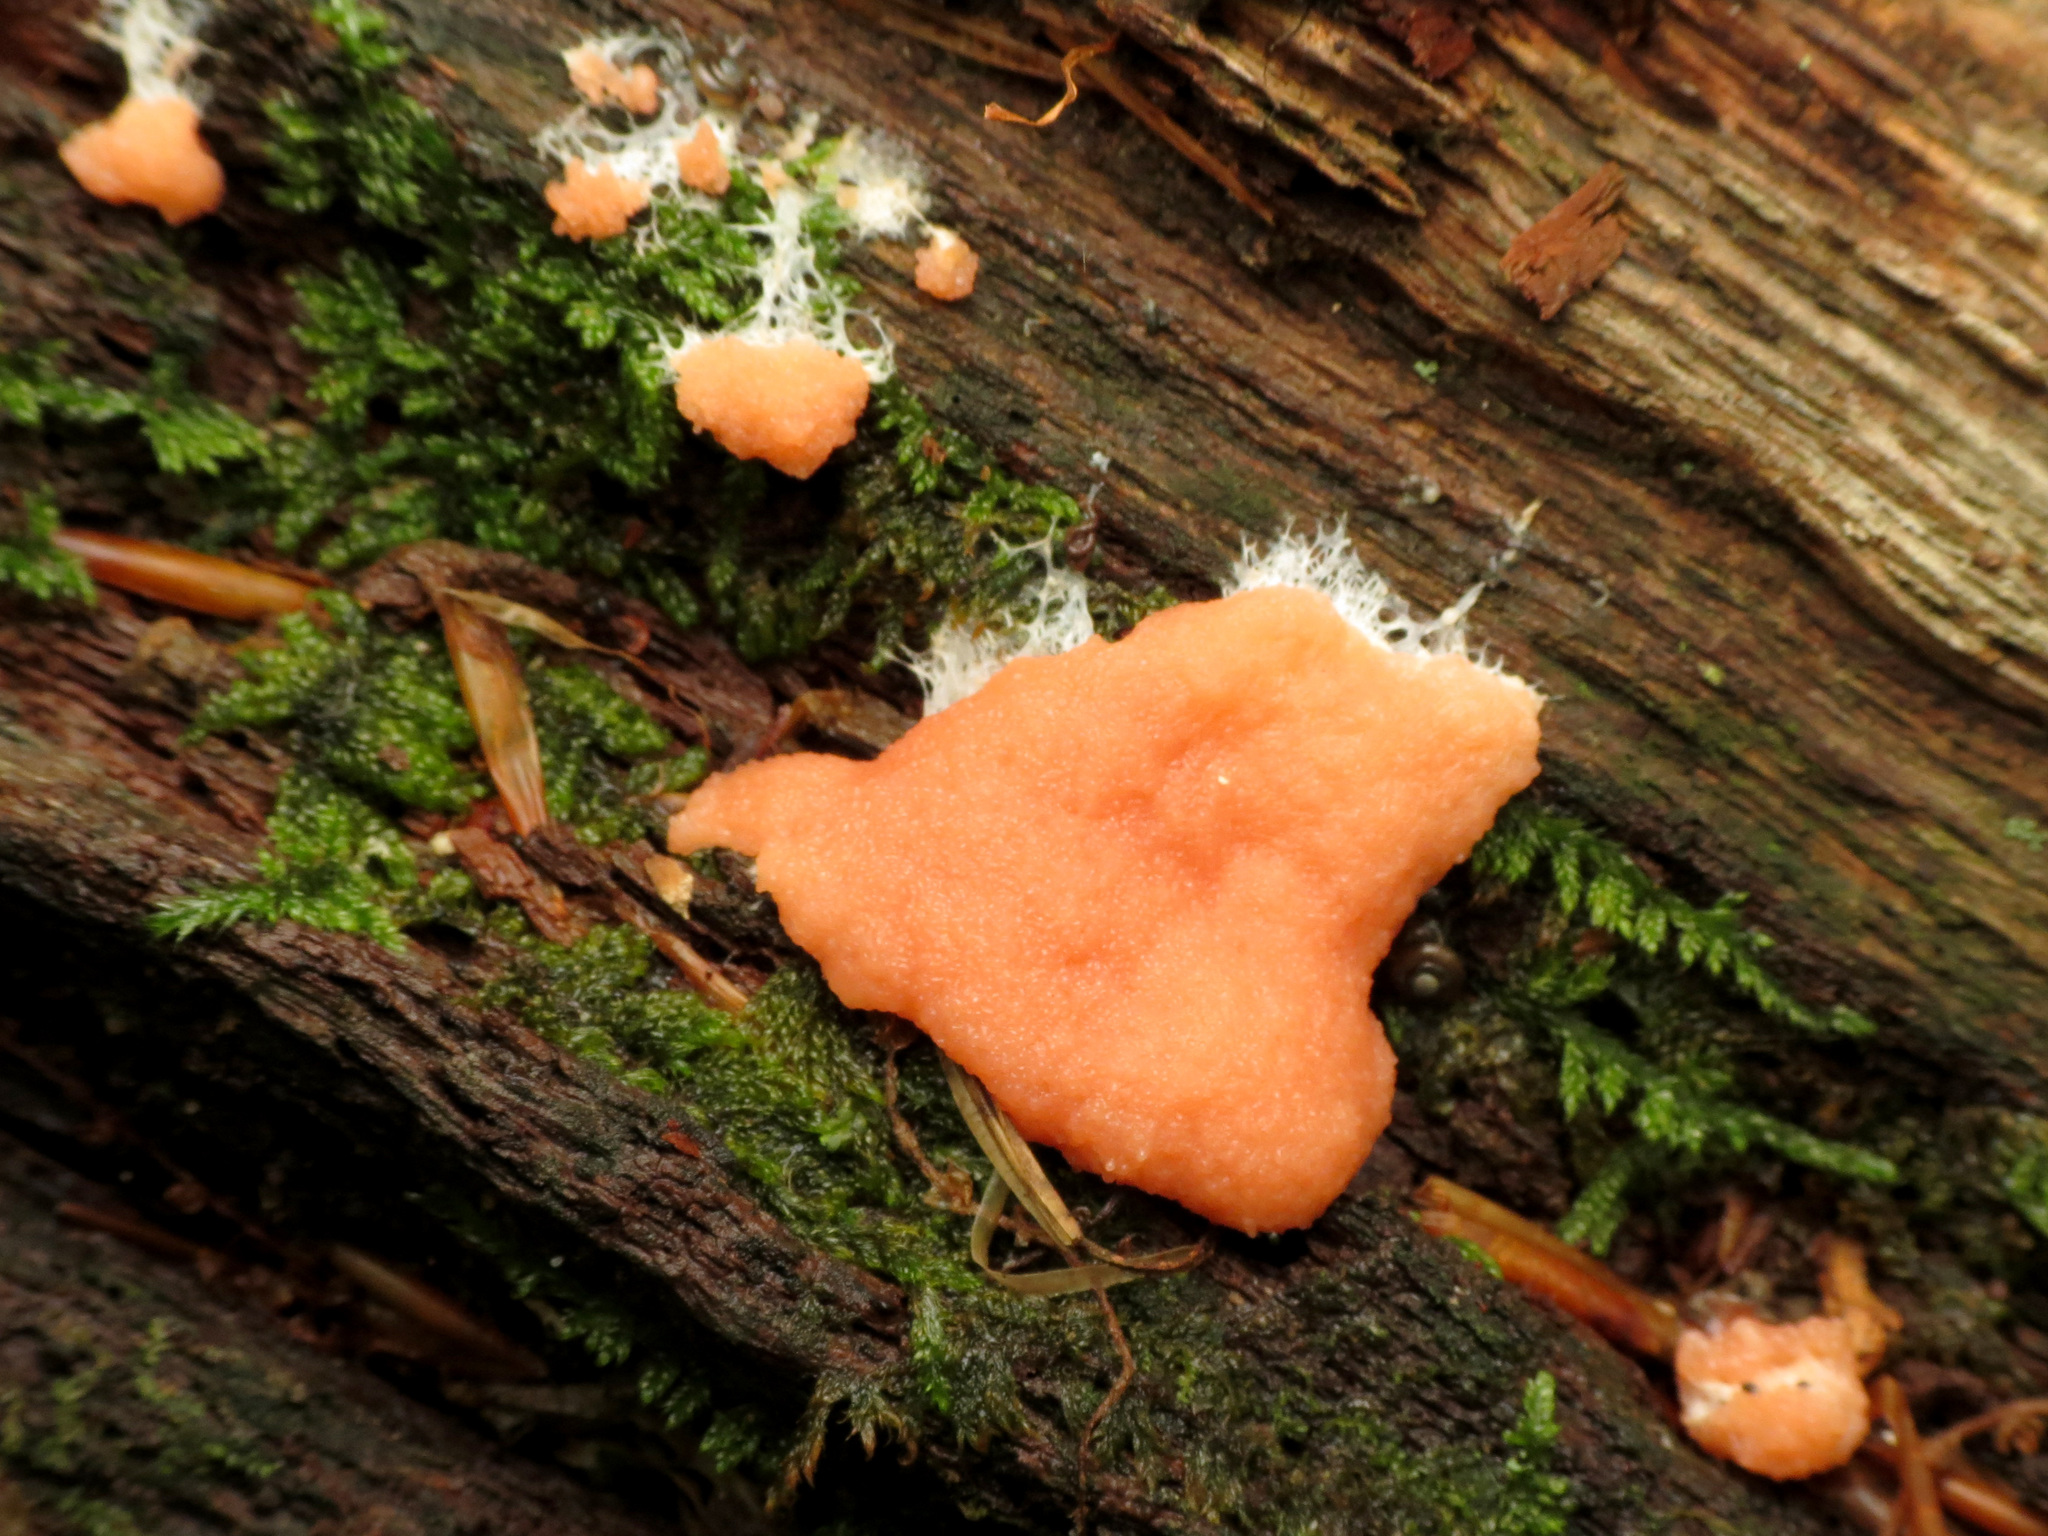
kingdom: Protozoa
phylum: Mycetozoa
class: Myxomycetes
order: Cribrariales
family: Tubiferaceae
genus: Tubifera
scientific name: Tubifera ferruginosa
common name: Red raspberry slime mold
